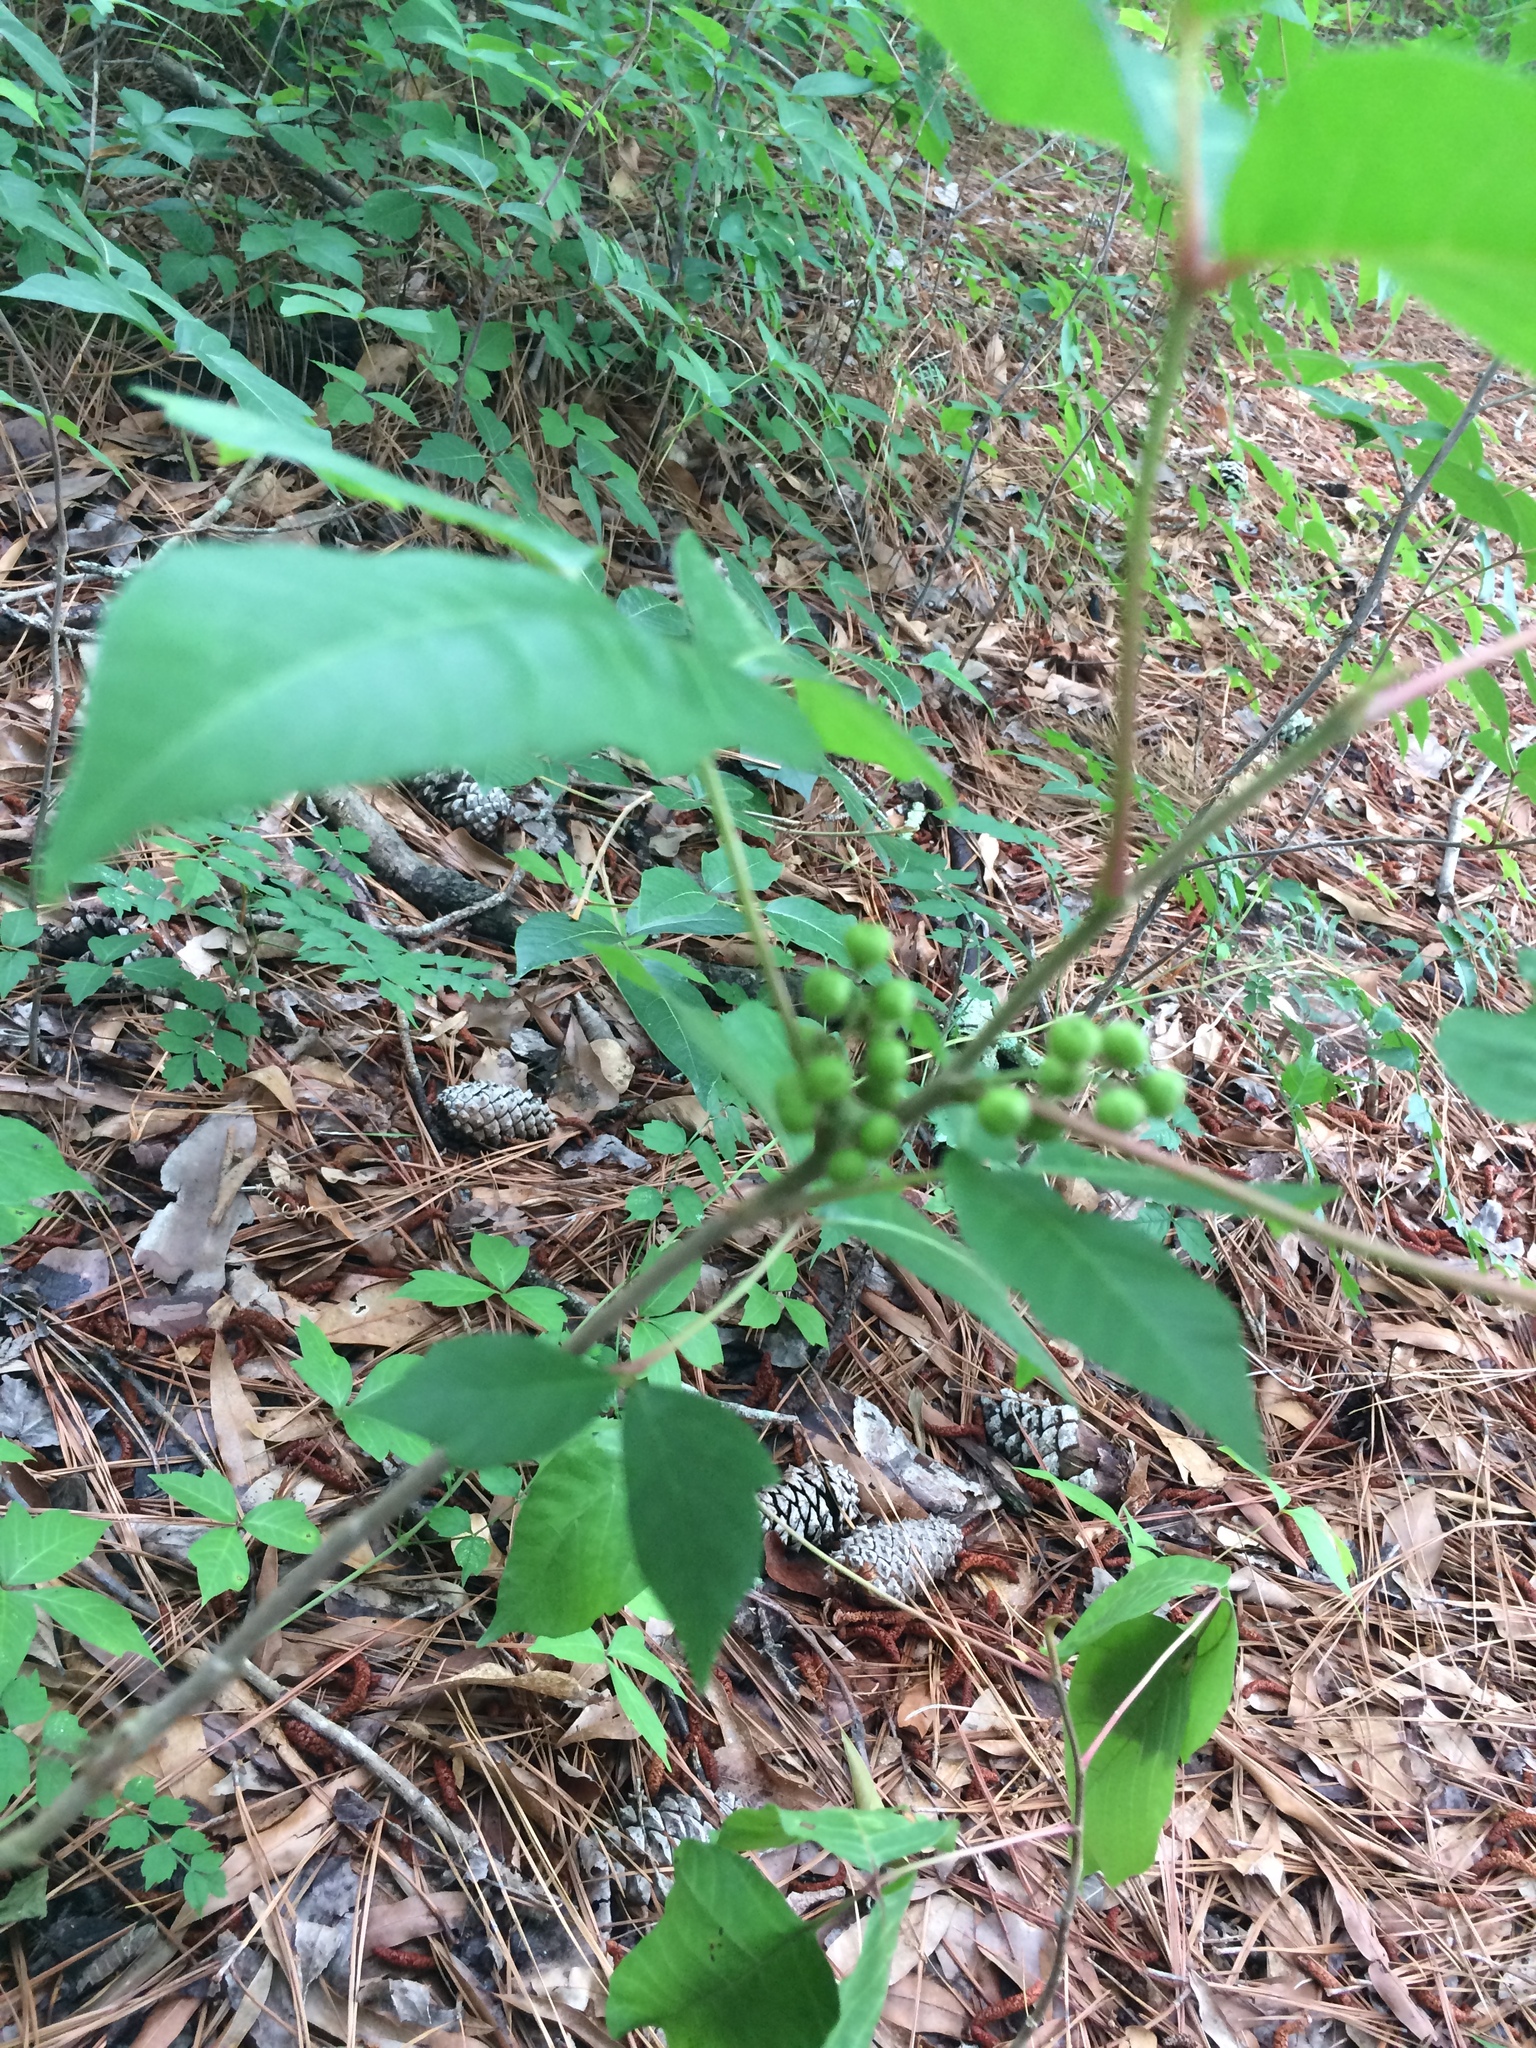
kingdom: Plantae
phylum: Tracheophyta
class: Magnoliopsida
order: Sapindales
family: Anacardiaceae
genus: Toxicodendron
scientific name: Toxicodendron pubescens
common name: Eastern poison-oak
